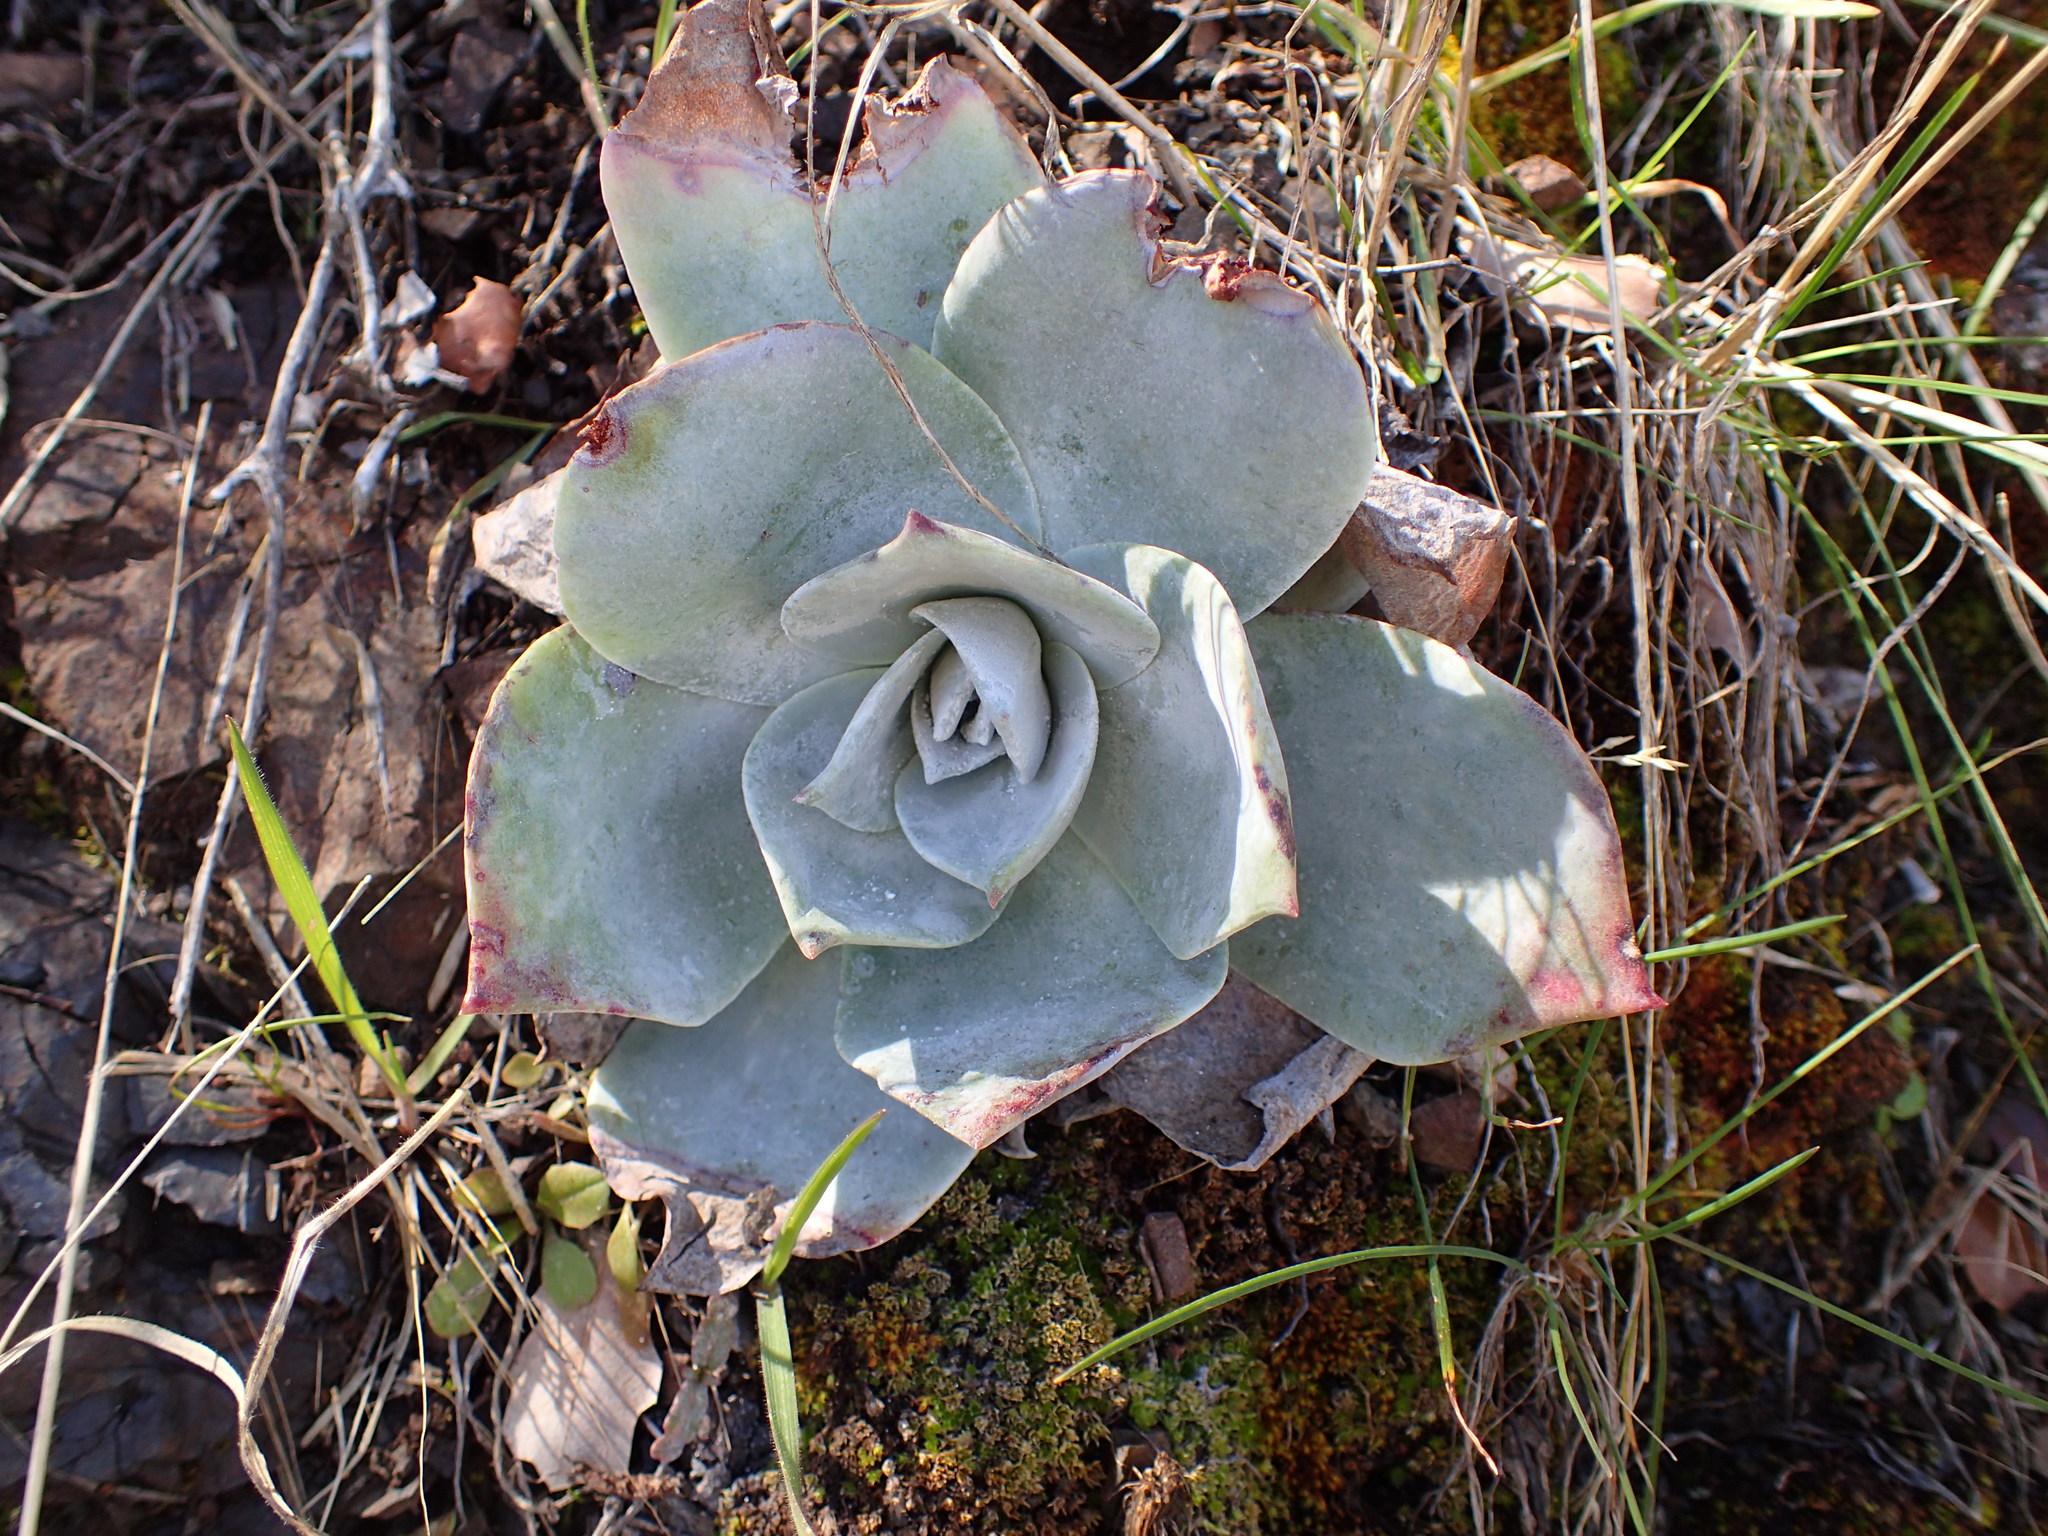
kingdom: Plantae
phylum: Tracheophyta
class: Magnoliopsida
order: Saxifragales
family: Crassulaceae
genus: Dudleya
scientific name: Dudleya pulverulenta
